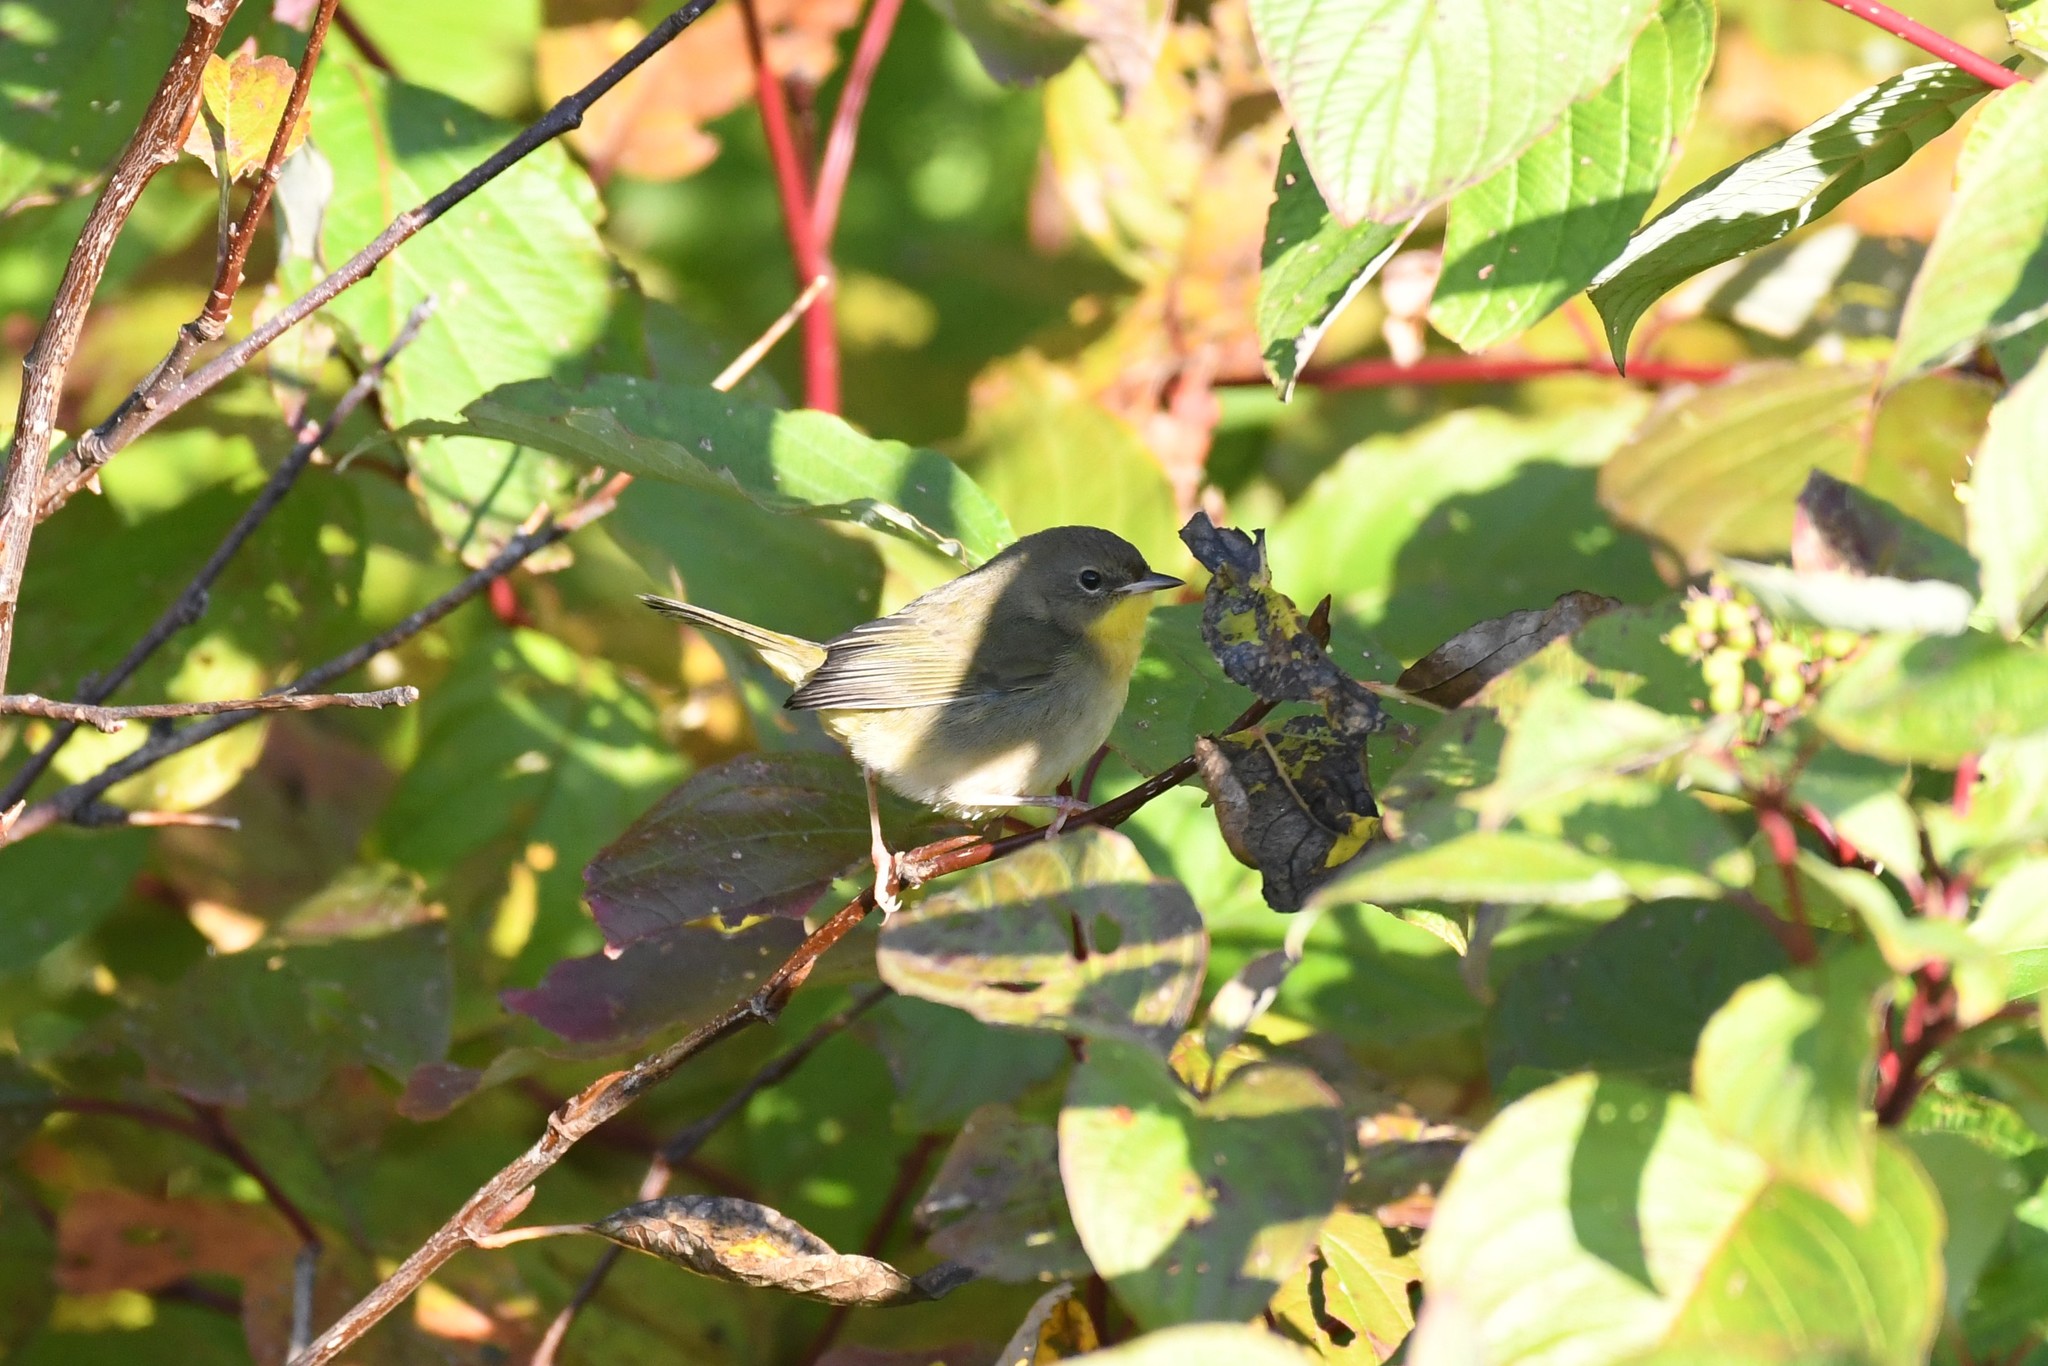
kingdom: Animalia
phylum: Chordata
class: Aves
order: Passeriformes
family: Parulidae
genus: Geothlypis
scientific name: Geothlypis trichas
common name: Common yellowthroat
